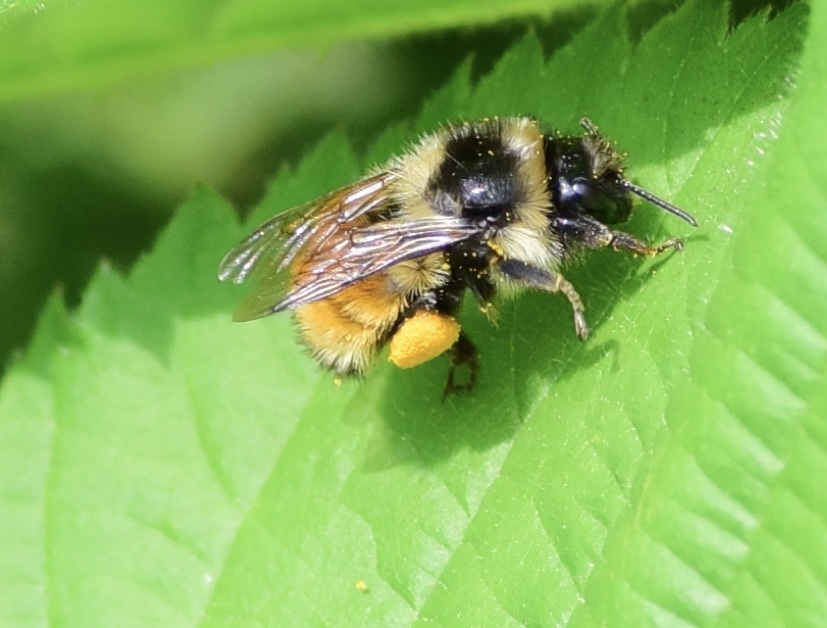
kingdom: Animalia
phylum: Arthropoda
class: Insecta
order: Hymenoptera
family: Apidae
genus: Bombus
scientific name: Bombus ternarius
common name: Tri-colored bumble bee
